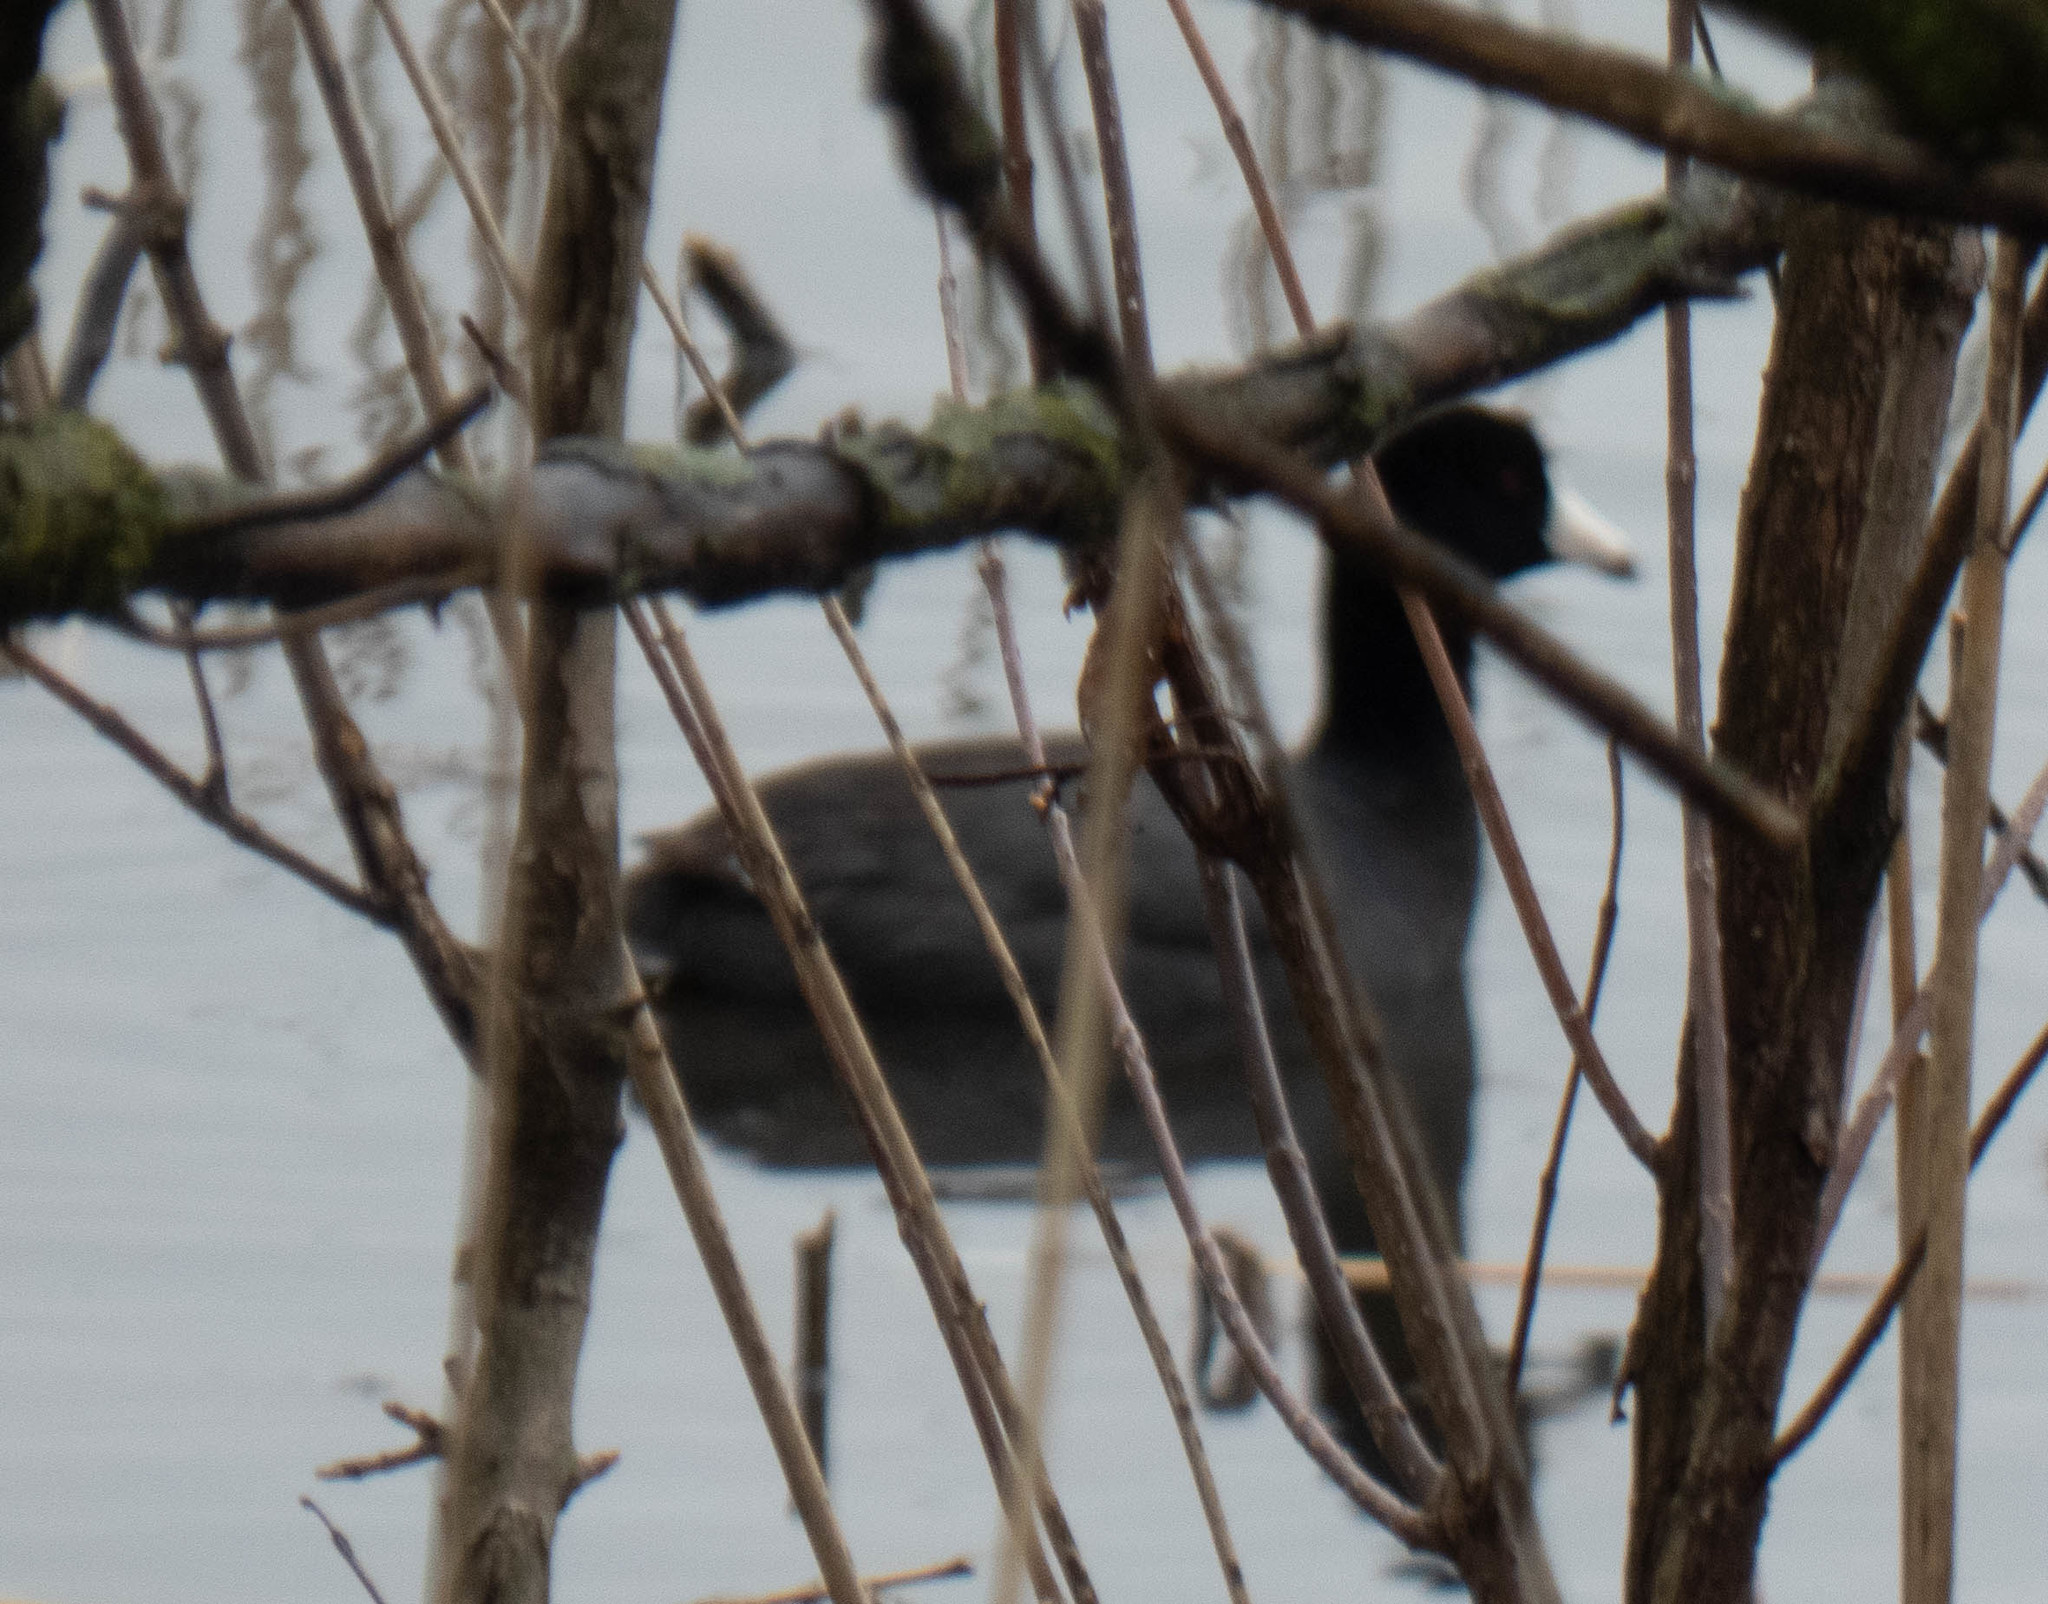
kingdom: Animalia
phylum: Chordata
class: Aves
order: Gruiformes
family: Rallidae
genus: Fulica
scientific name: Fulica americana
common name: American coot
